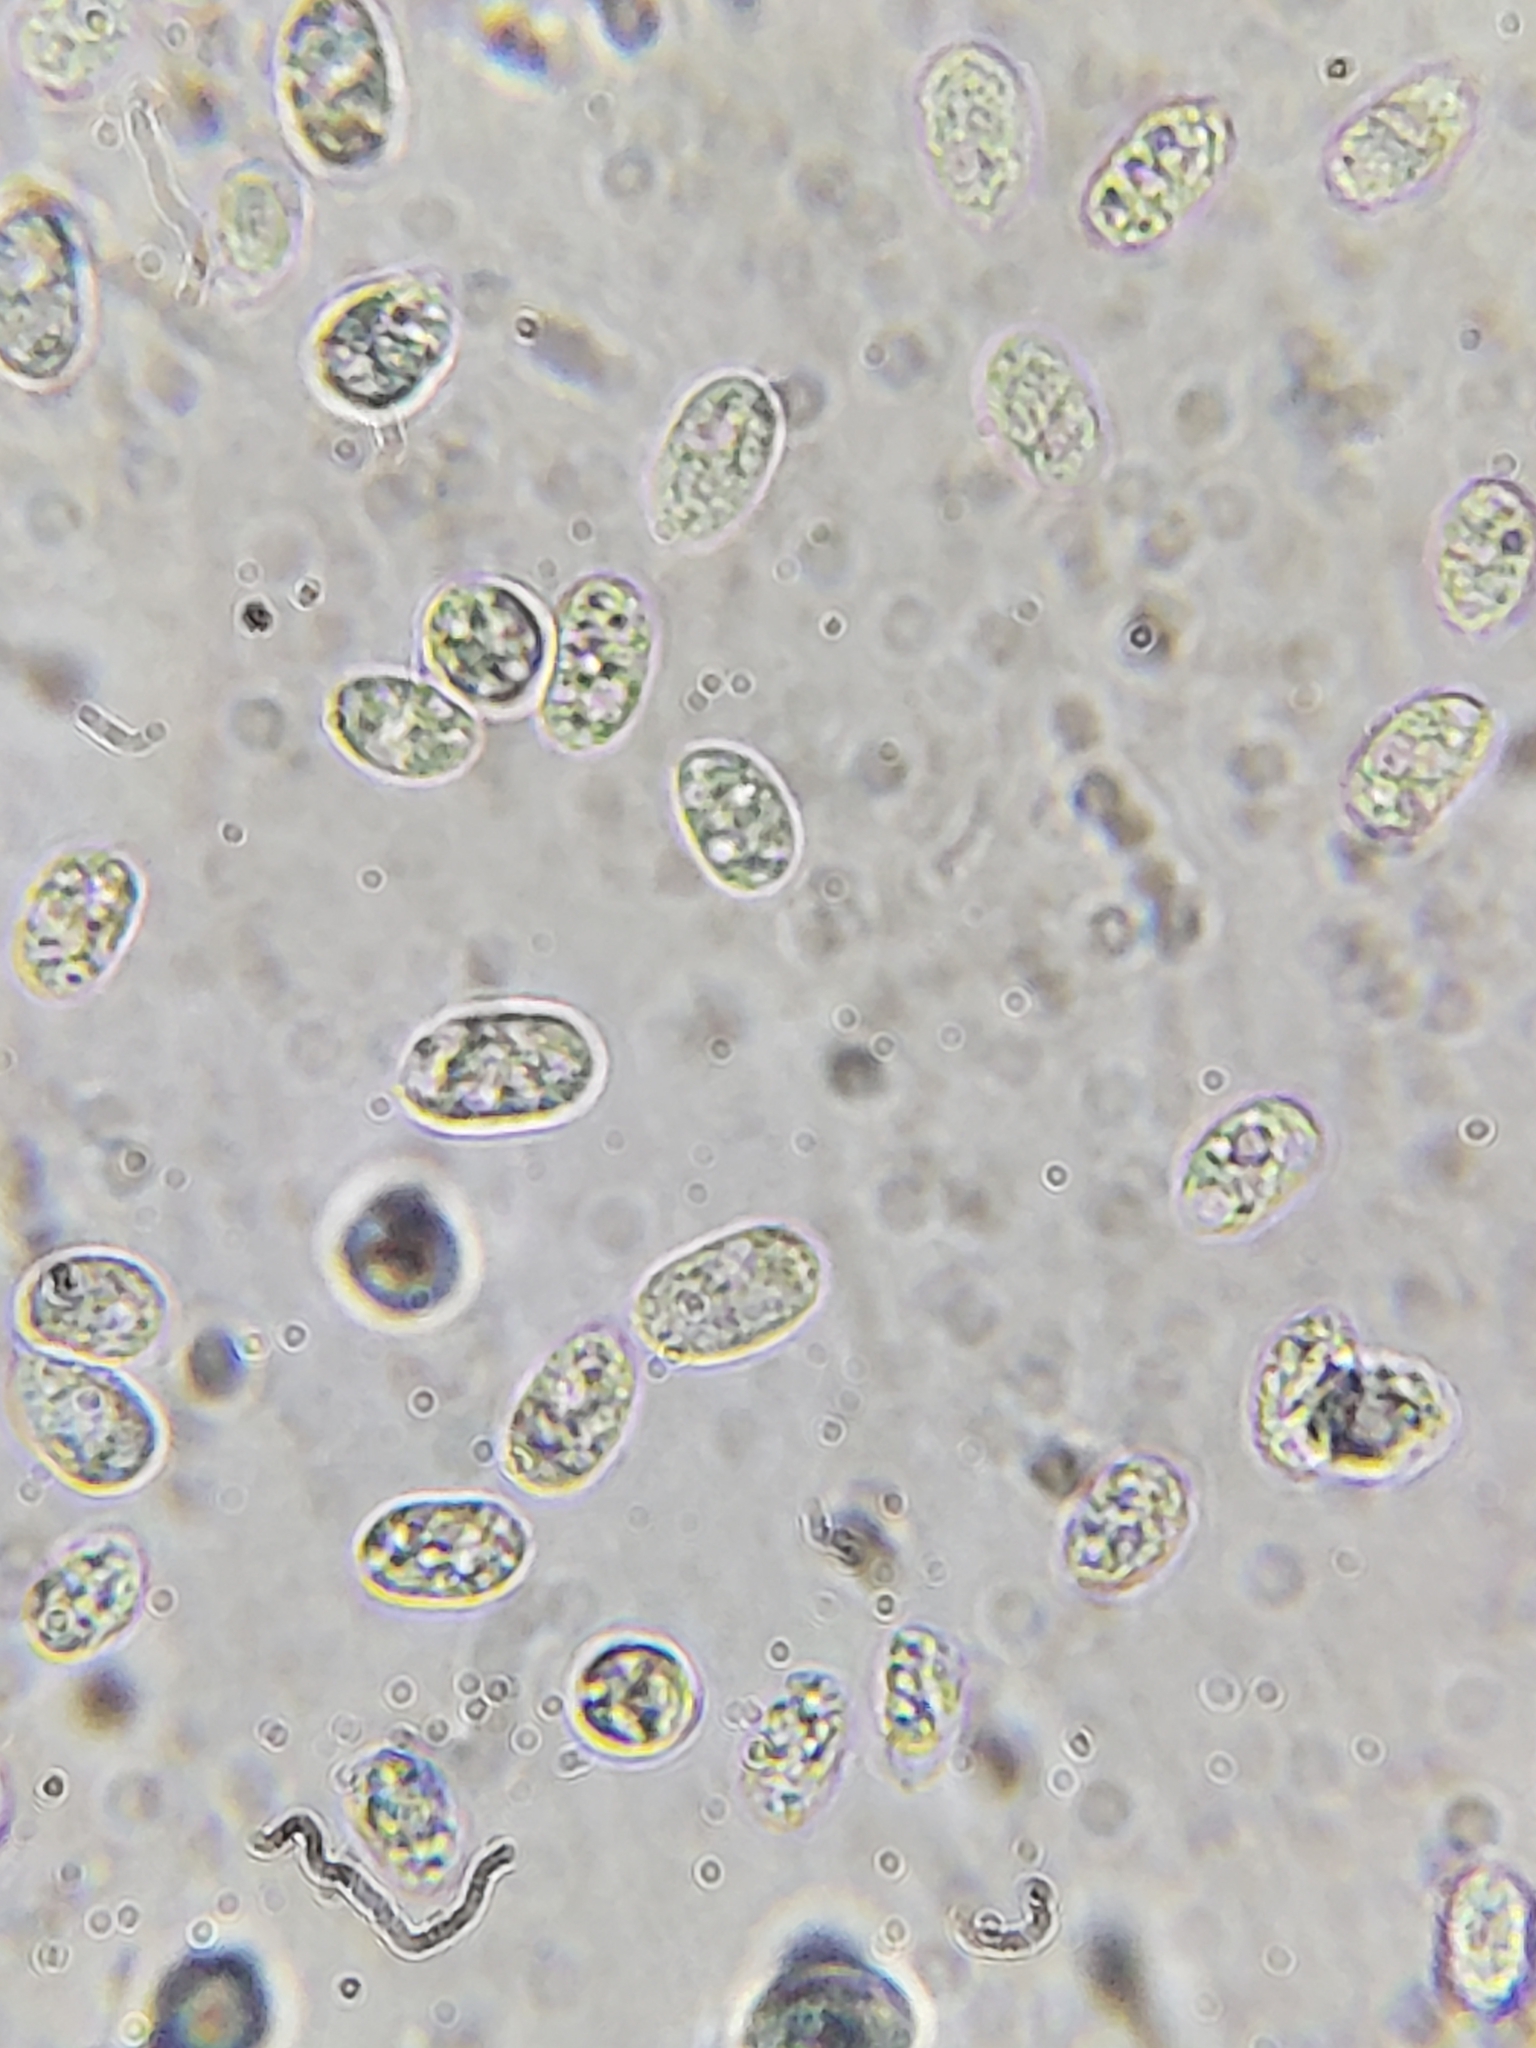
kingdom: Fungi
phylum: Basidiomycota
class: Agaricomycetes
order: Agaricales
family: Mycenaceae
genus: Mycena
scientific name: Mycena leaiana
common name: Orange mycena
